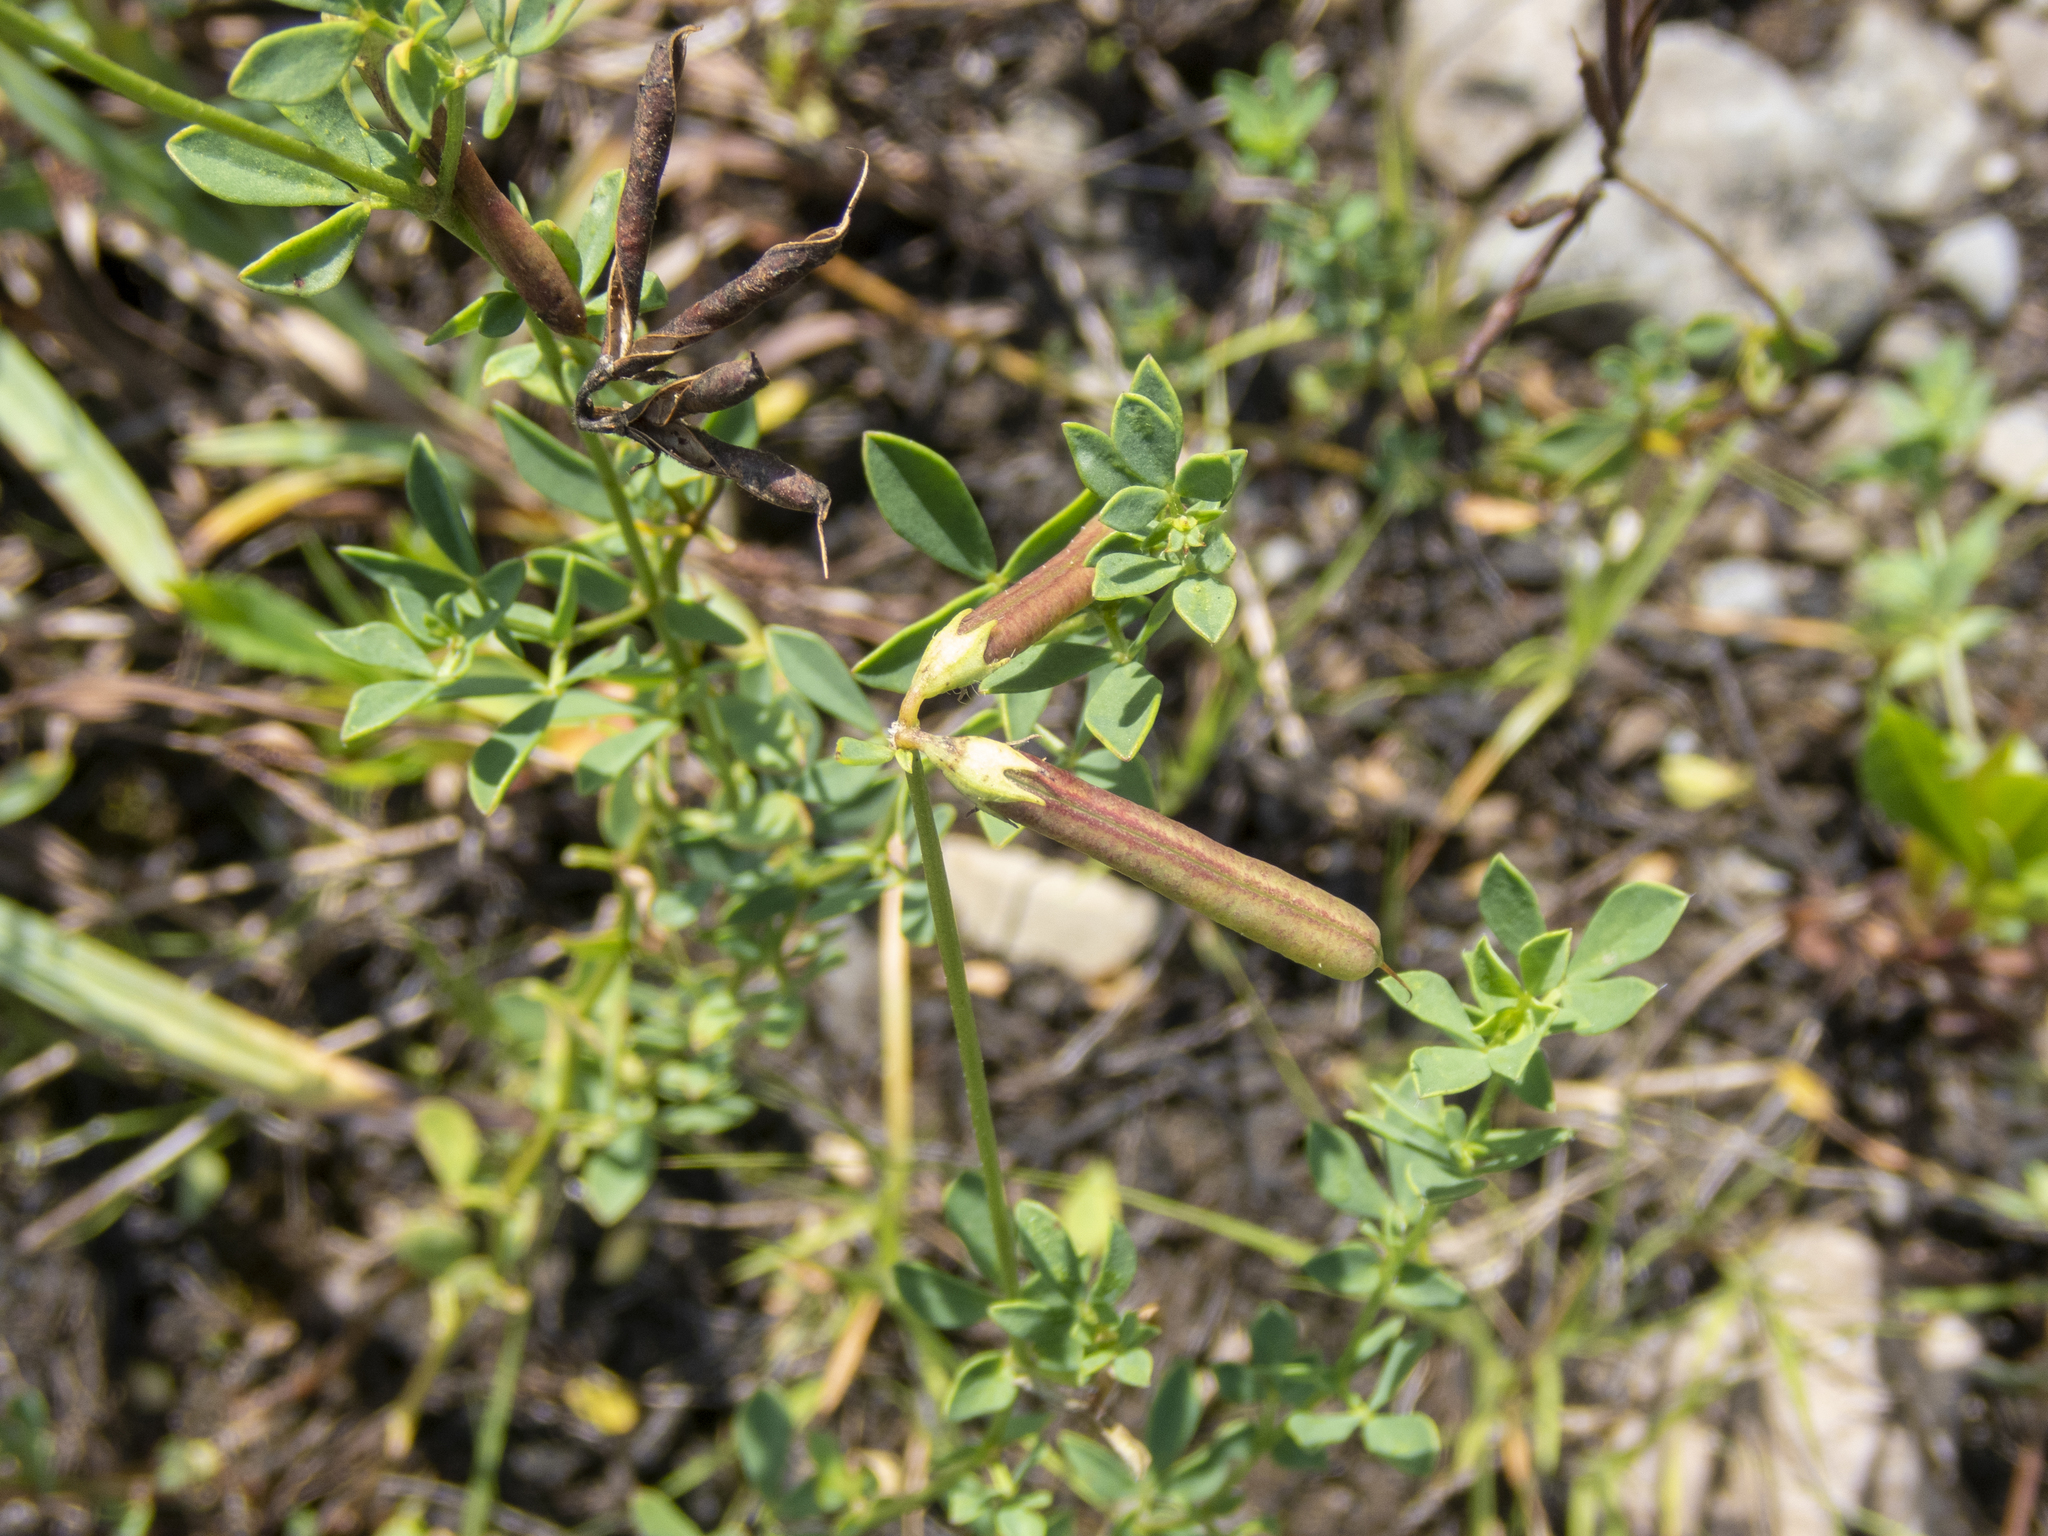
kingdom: Plantae
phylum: Tracheophyta
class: Magnoliopsida
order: Fabales
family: Fabaceae
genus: Lotus
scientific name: Lotus corniculatus
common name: Common bird's-foot-trefoil
